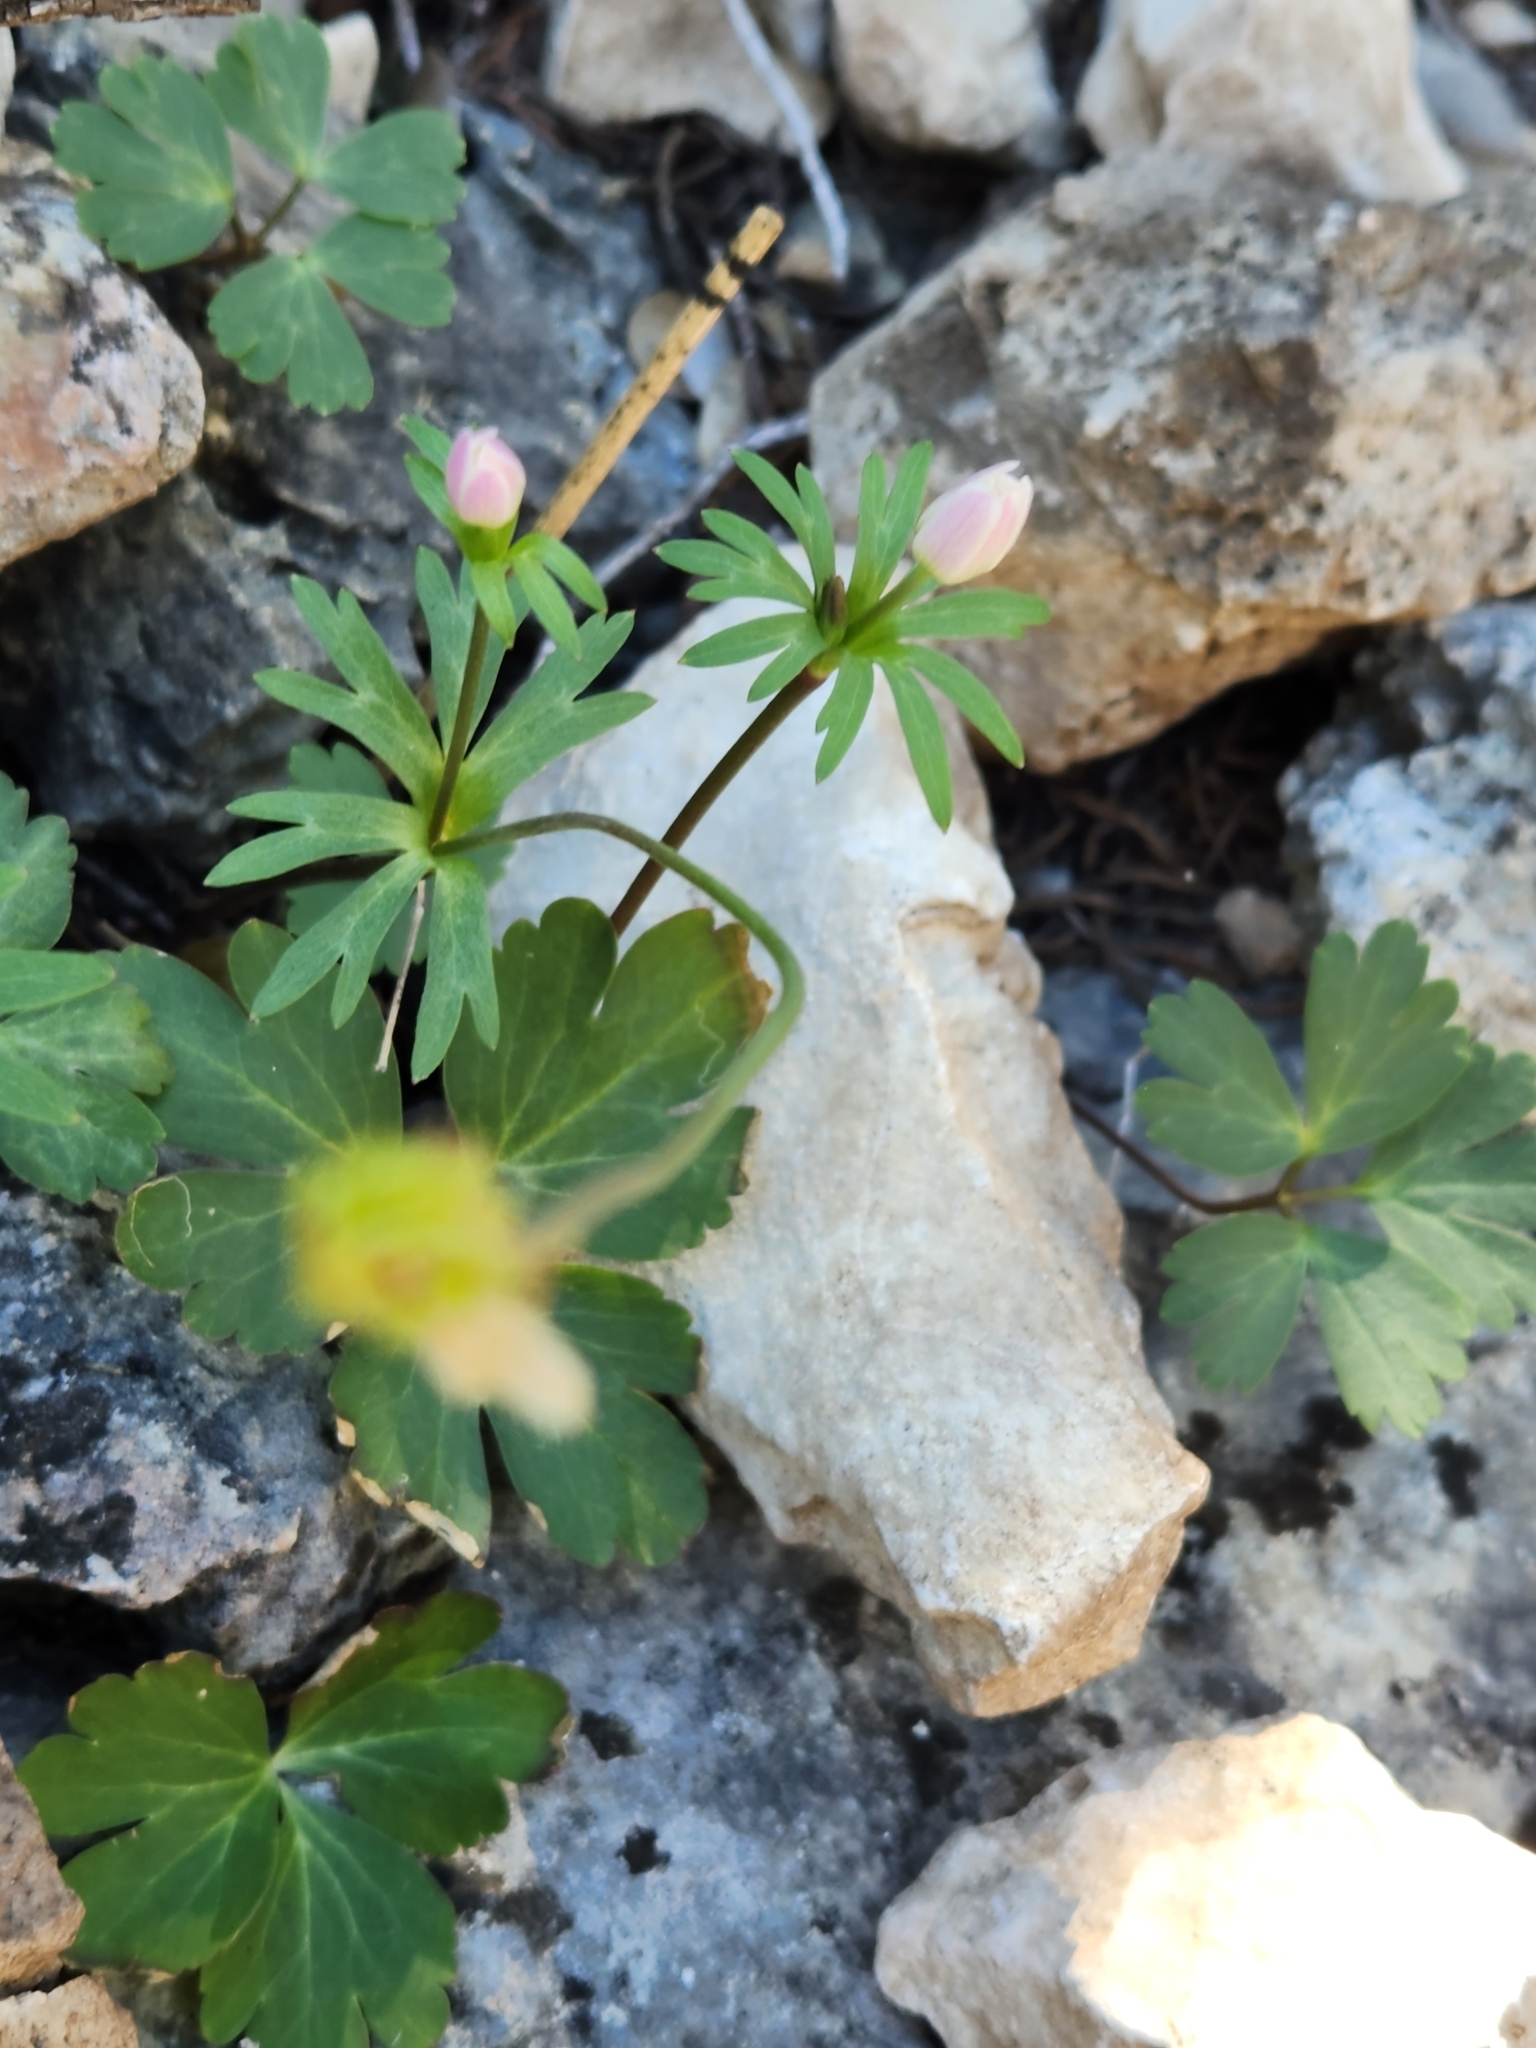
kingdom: Plantae
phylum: Tracheophyta
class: Magnoliopsida
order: Ranunculales
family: Ranunculaceae
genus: Anemone
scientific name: Anemone edwardsiana
